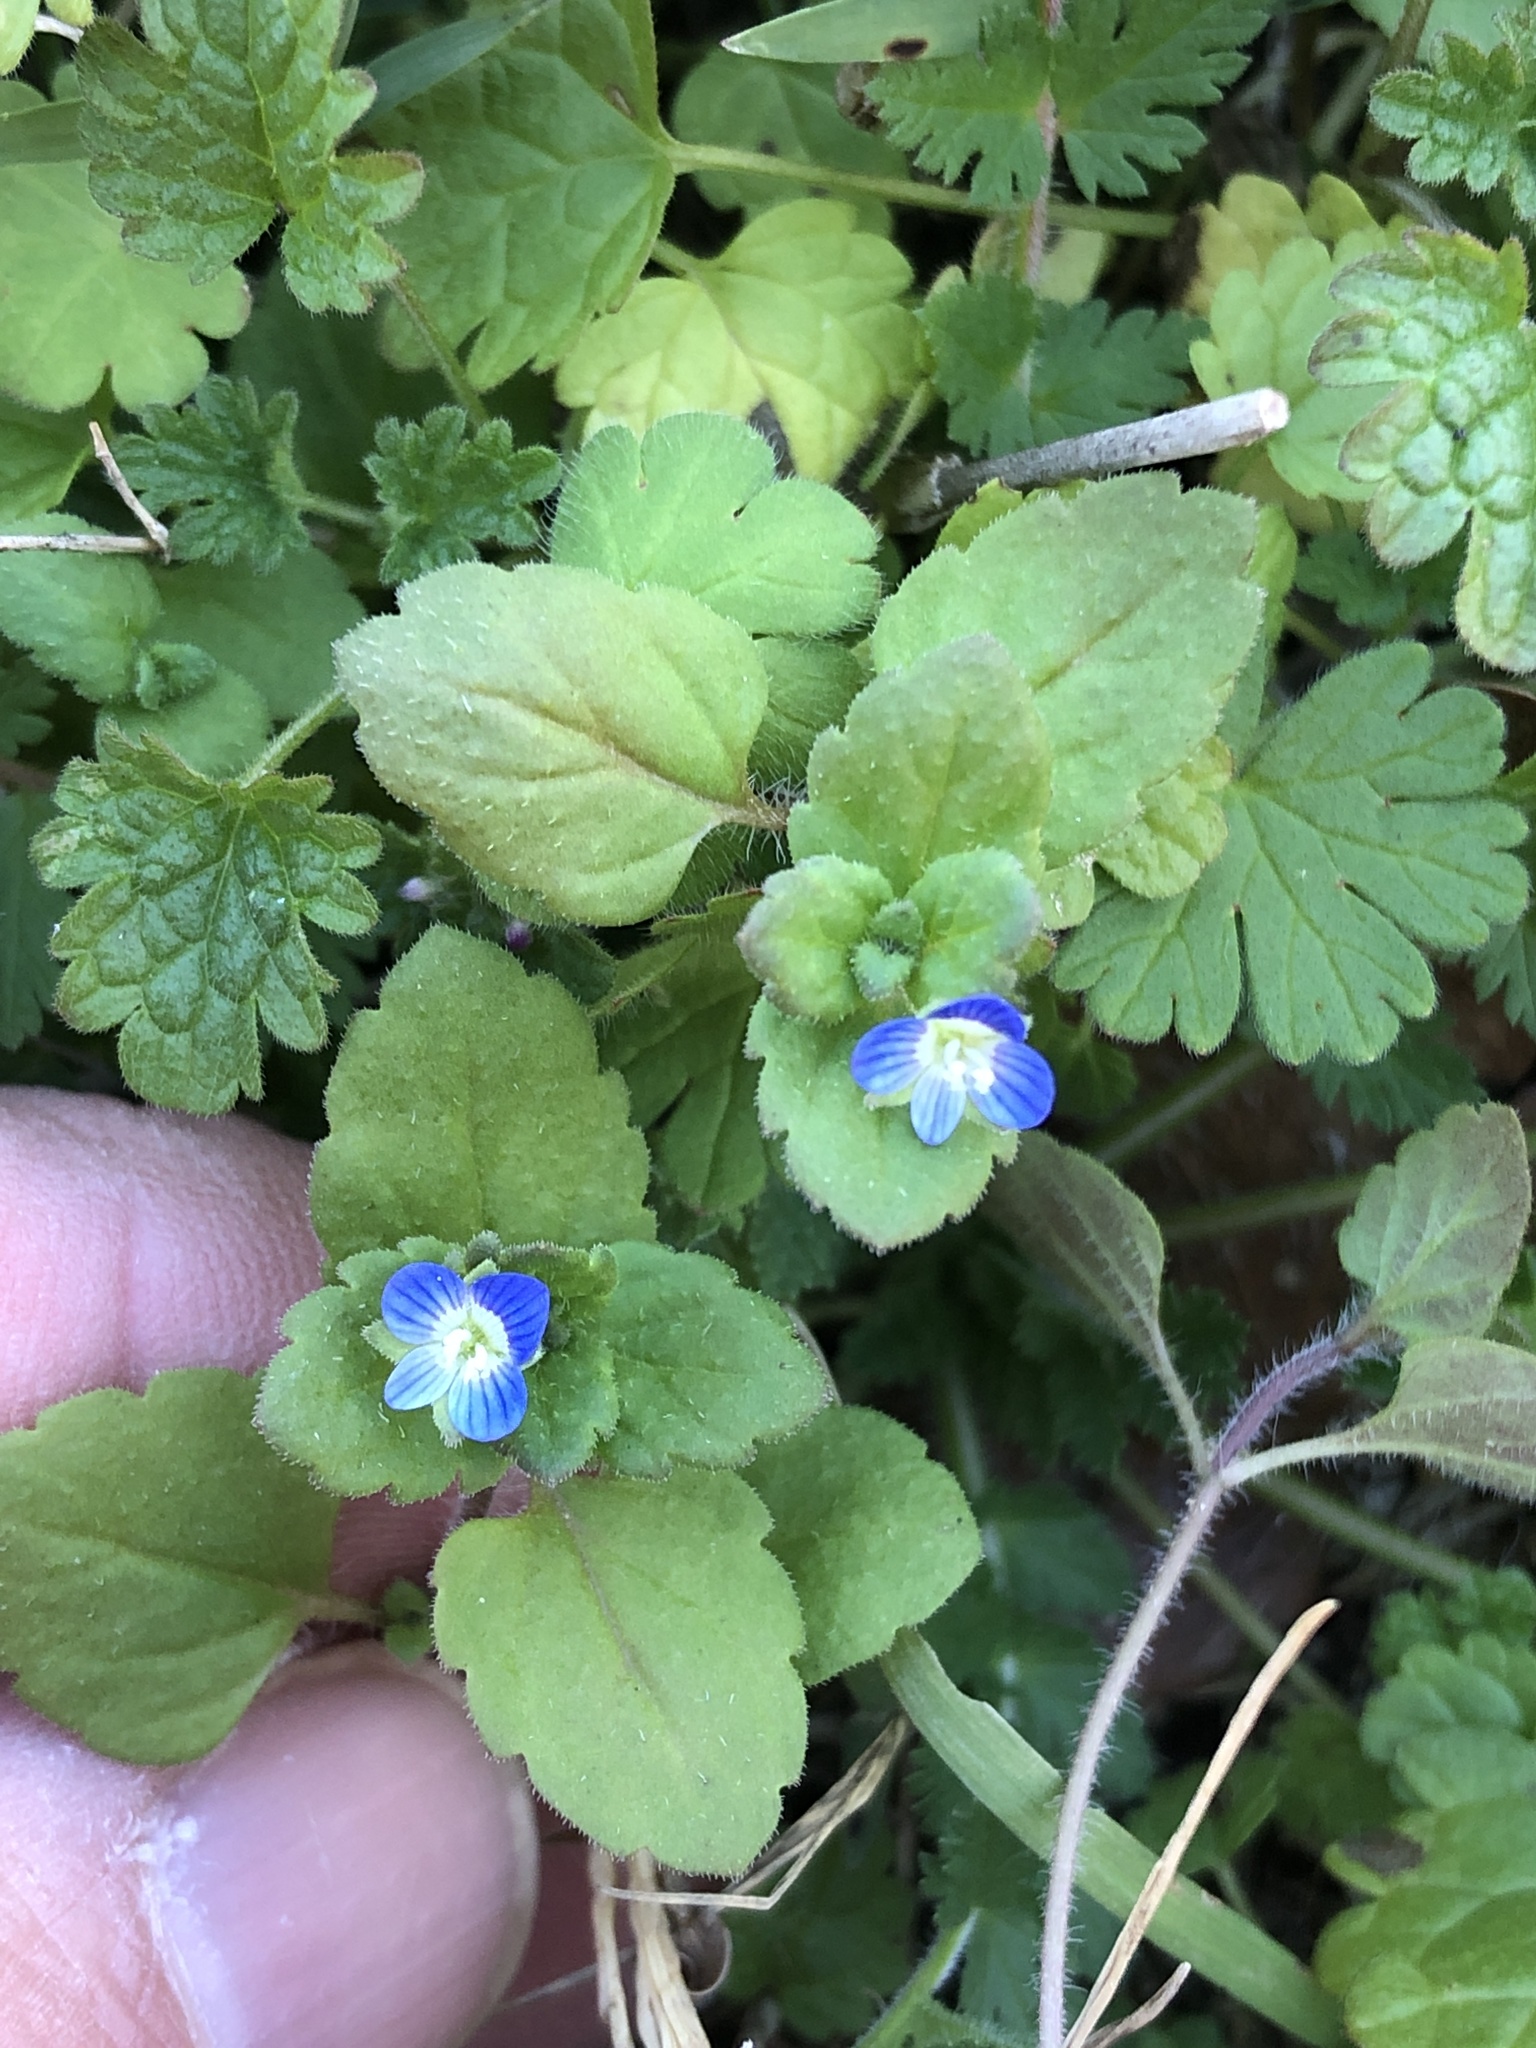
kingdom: Plantae
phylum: Tracheophyta
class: Magnoliopsida
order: Lamiales
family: Plantaginaceae
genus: Veronica
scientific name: Veronica persica
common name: Common field-speedwell
